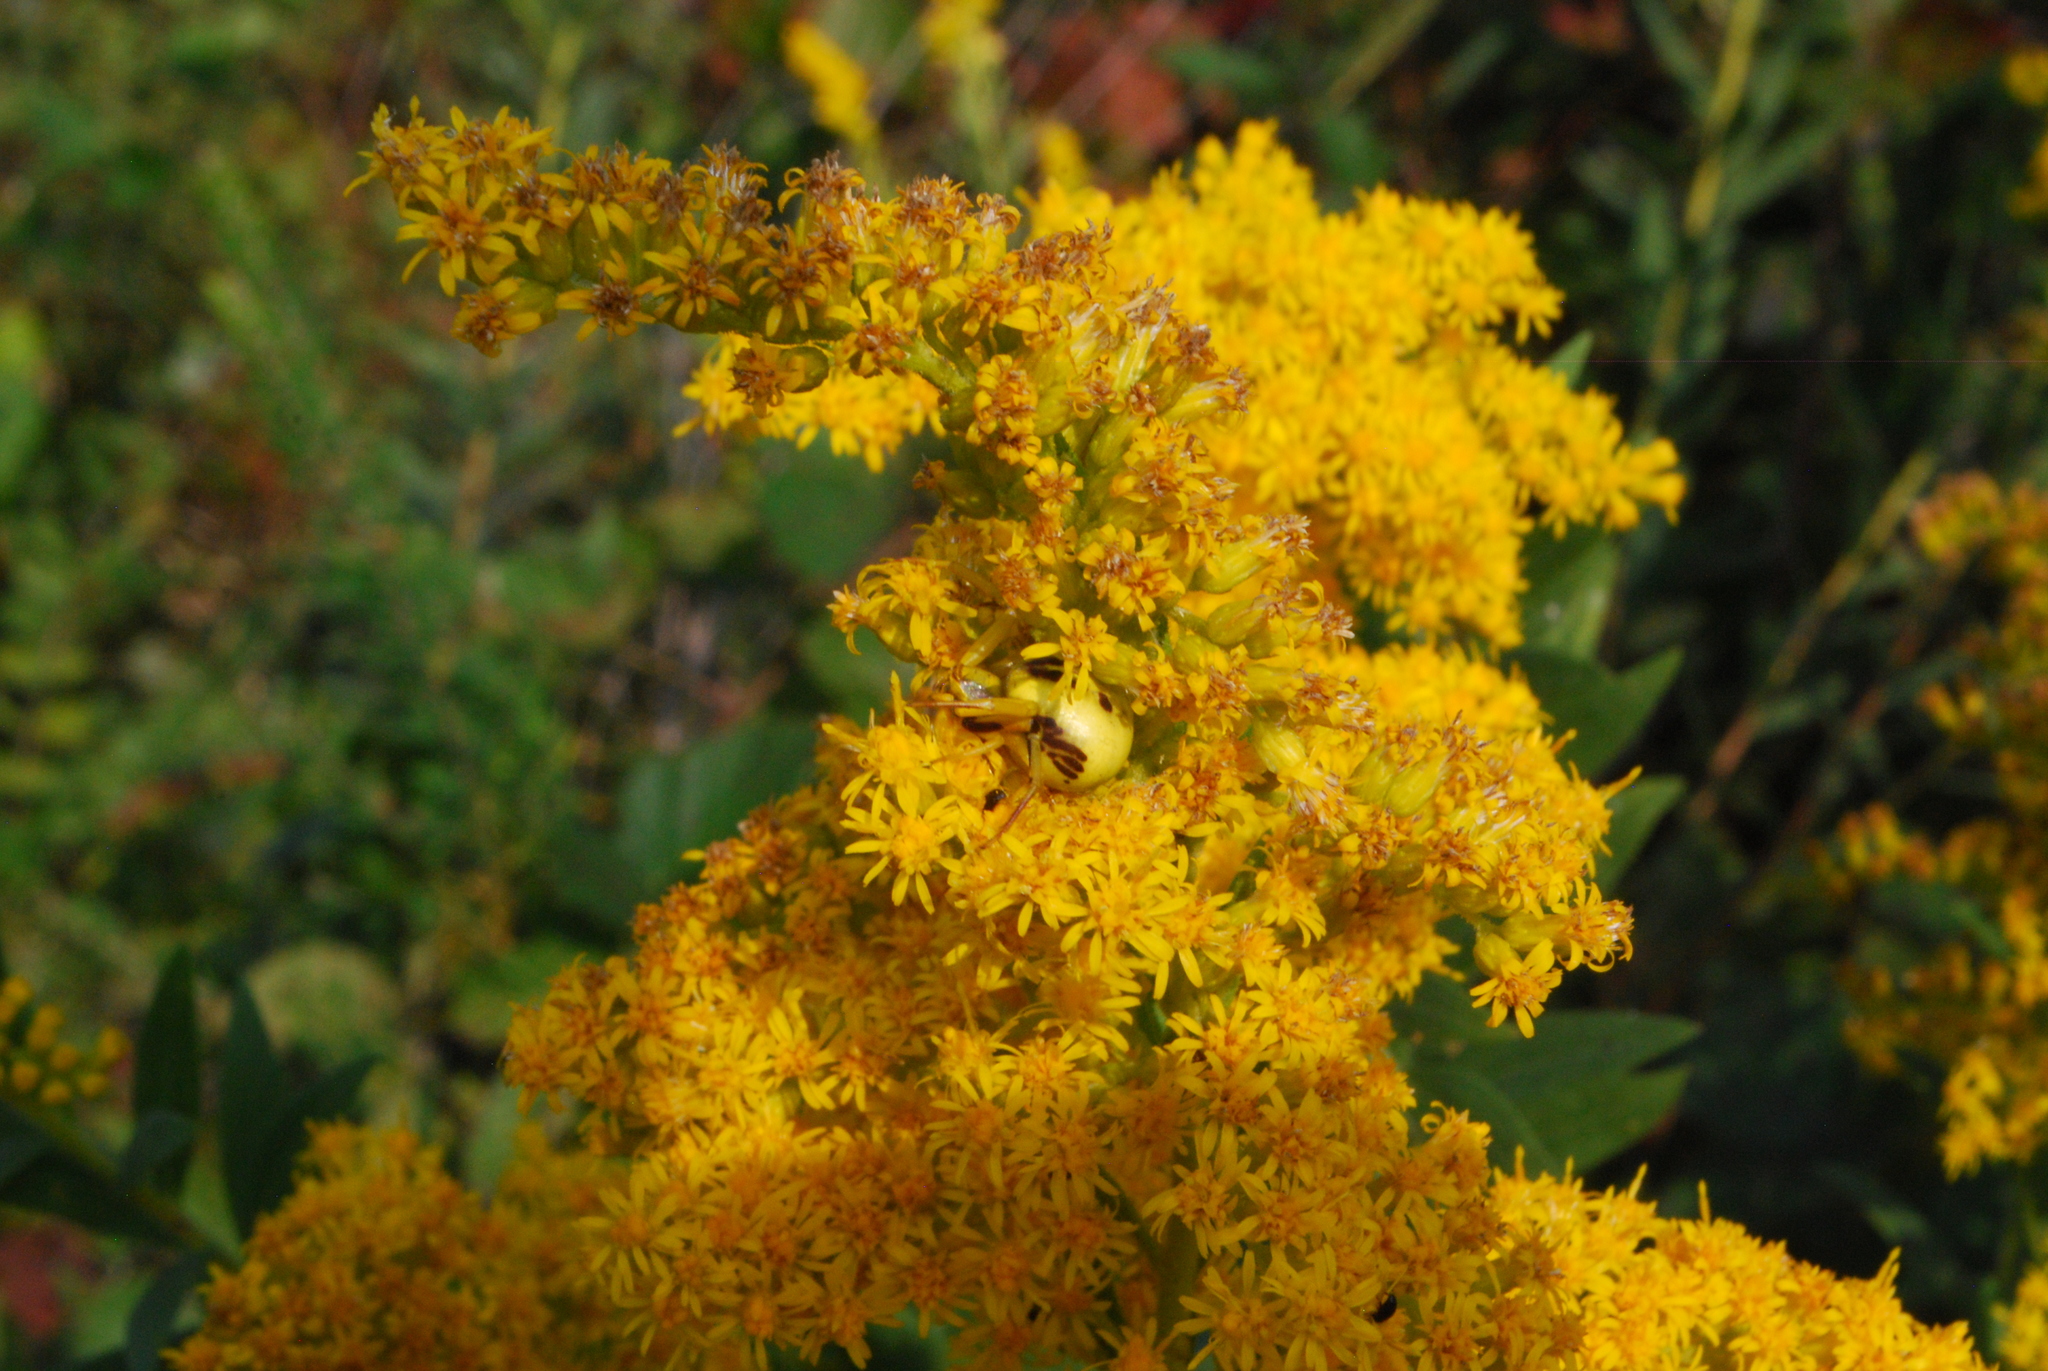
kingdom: Animalia
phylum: Arthropoda
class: Arachnida
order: Araneae
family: Thomisidae
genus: Misumenoides
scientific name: Misumenoides formosipes
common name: White-banded crab spider
